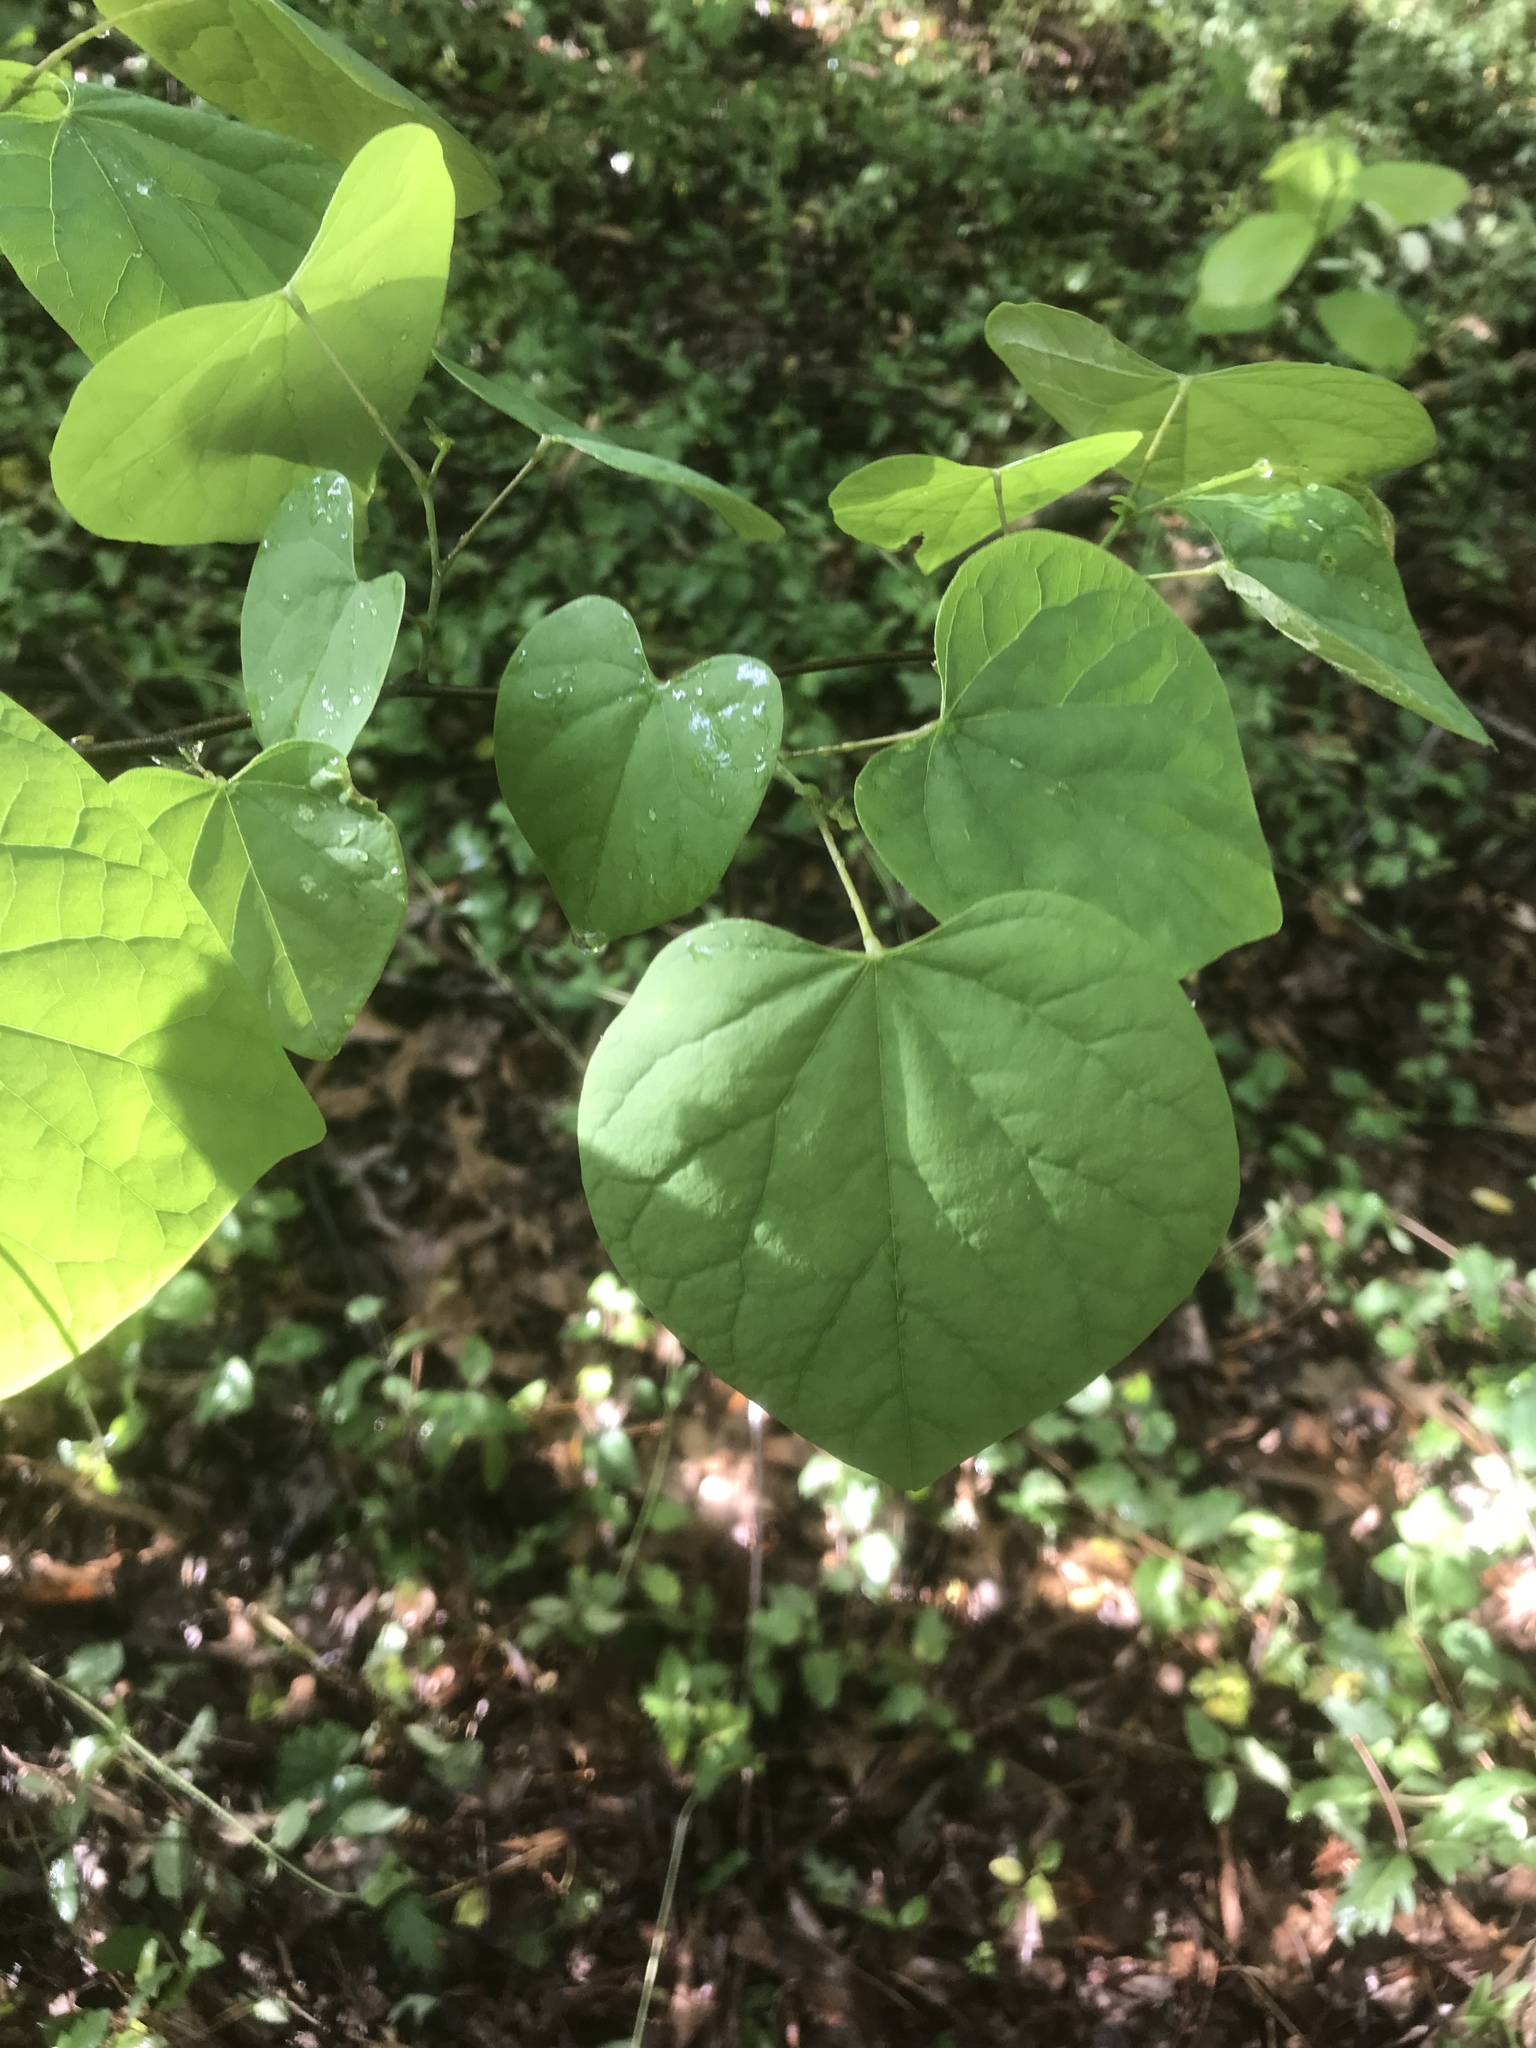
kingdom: Plantae
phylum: Tracheophyta
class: Magnoliopsida
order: Fabales
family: Fabaceae
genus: Cercis
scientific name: Cercis canadensis
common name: Eastern redbud
